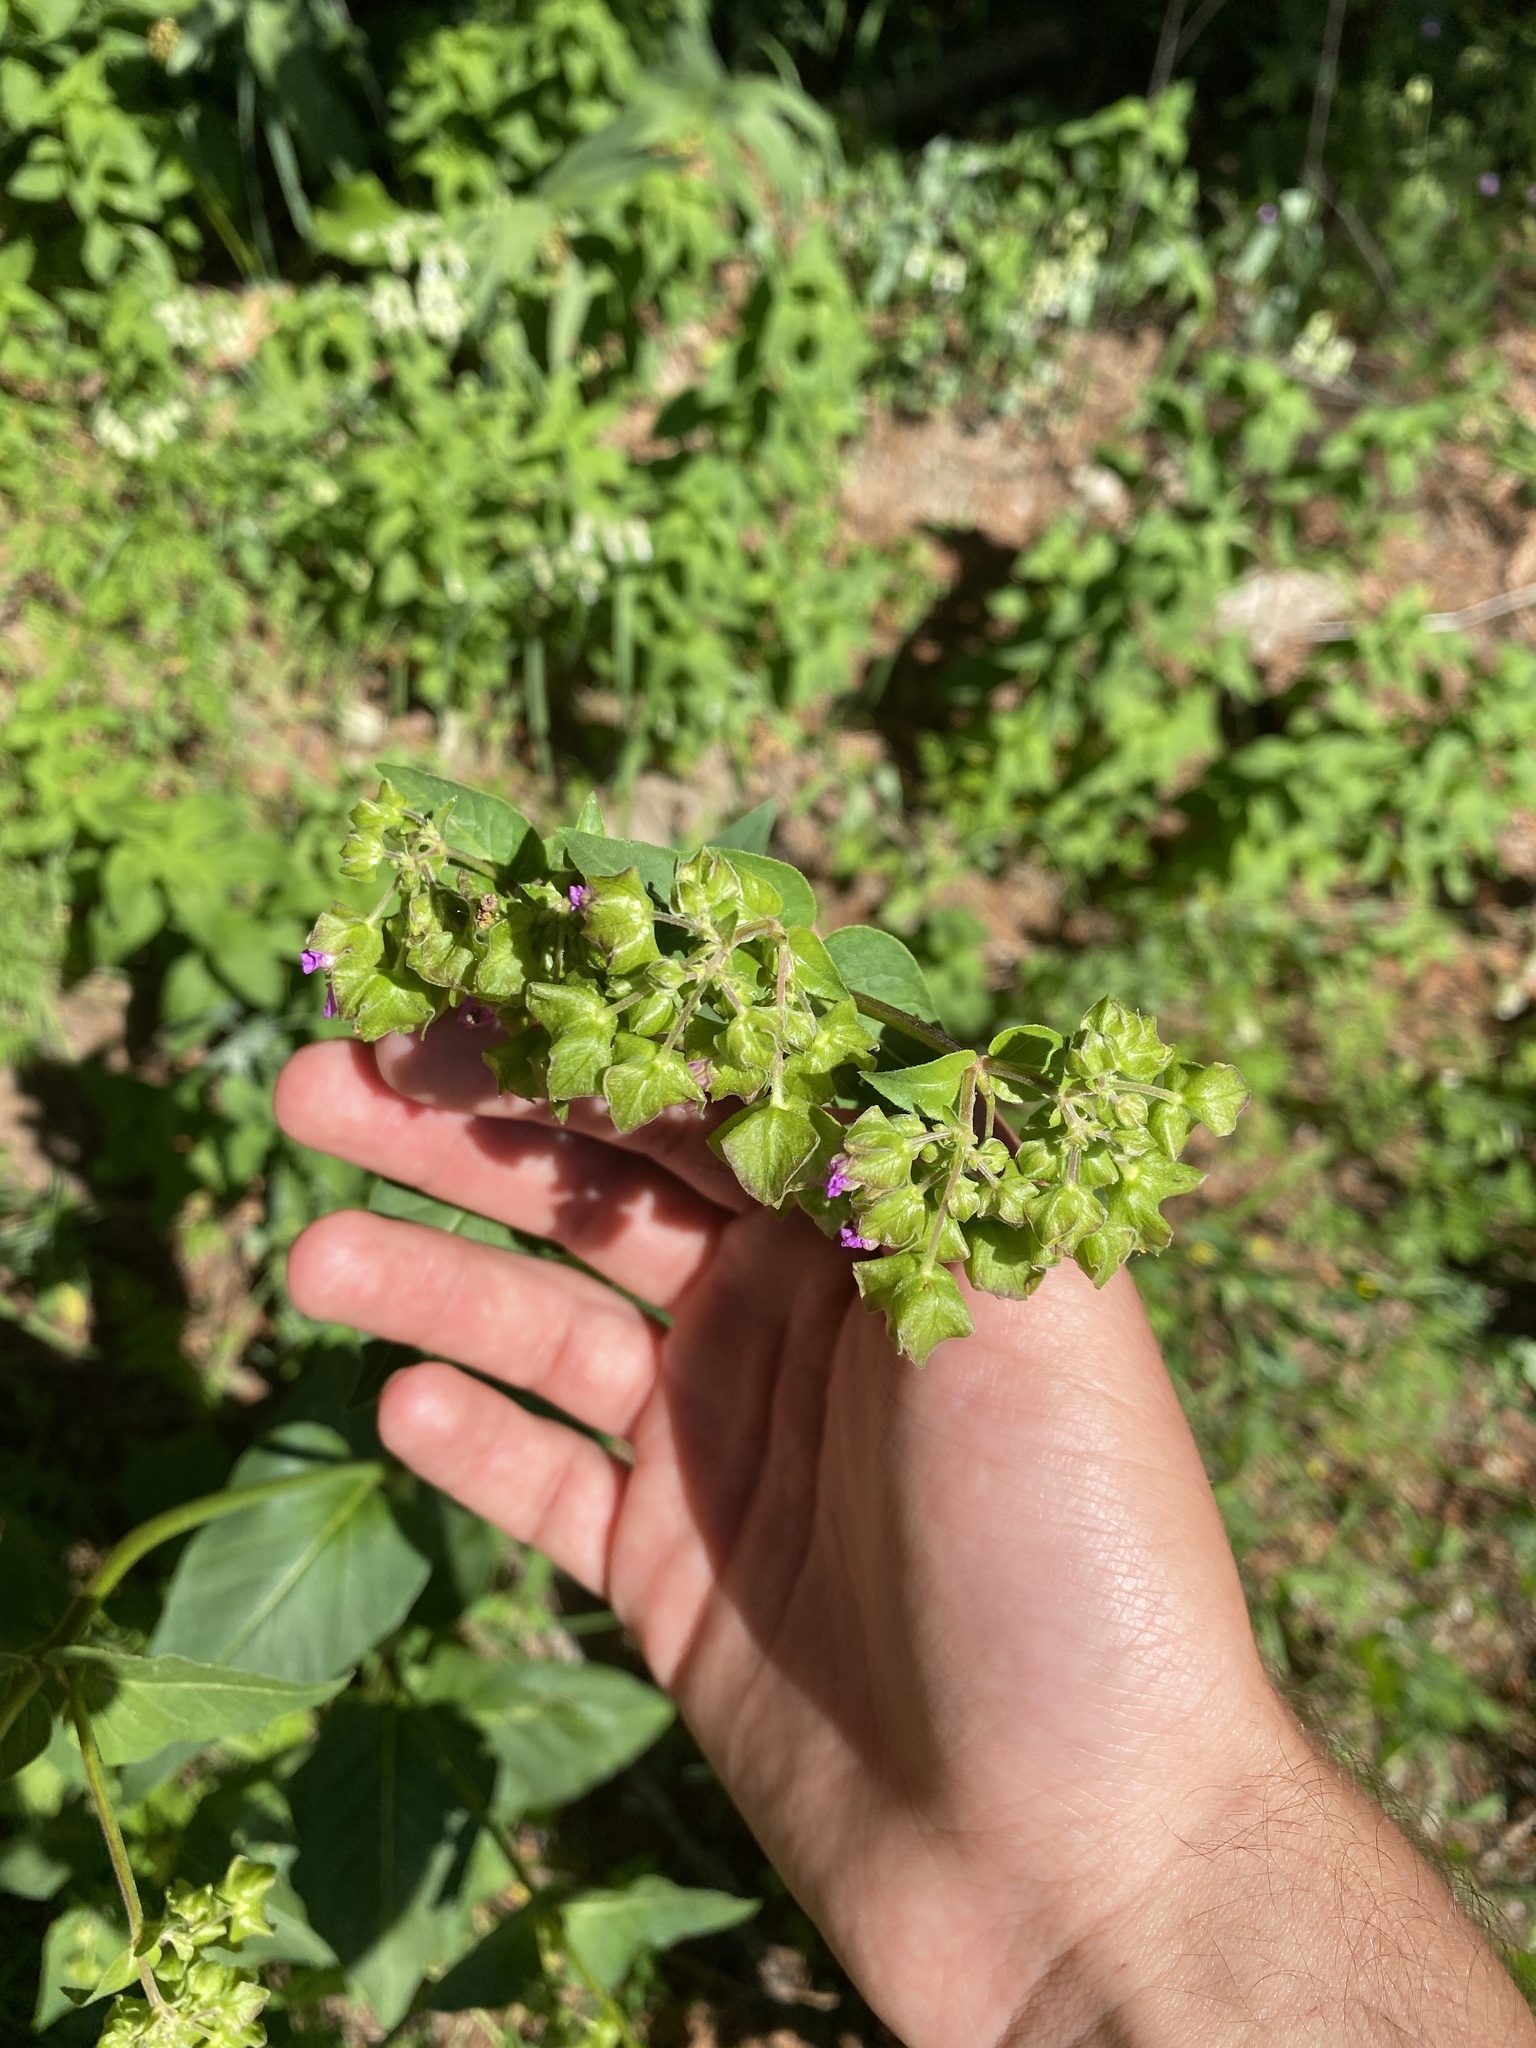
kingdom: Plantae
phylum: Tracheophyta
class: Magnoliopsida
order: Caryophyllales
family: Nyctaginaceae
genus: Mirabilis
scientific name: Mirabilis nyctaginea
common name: Umbrella wort
